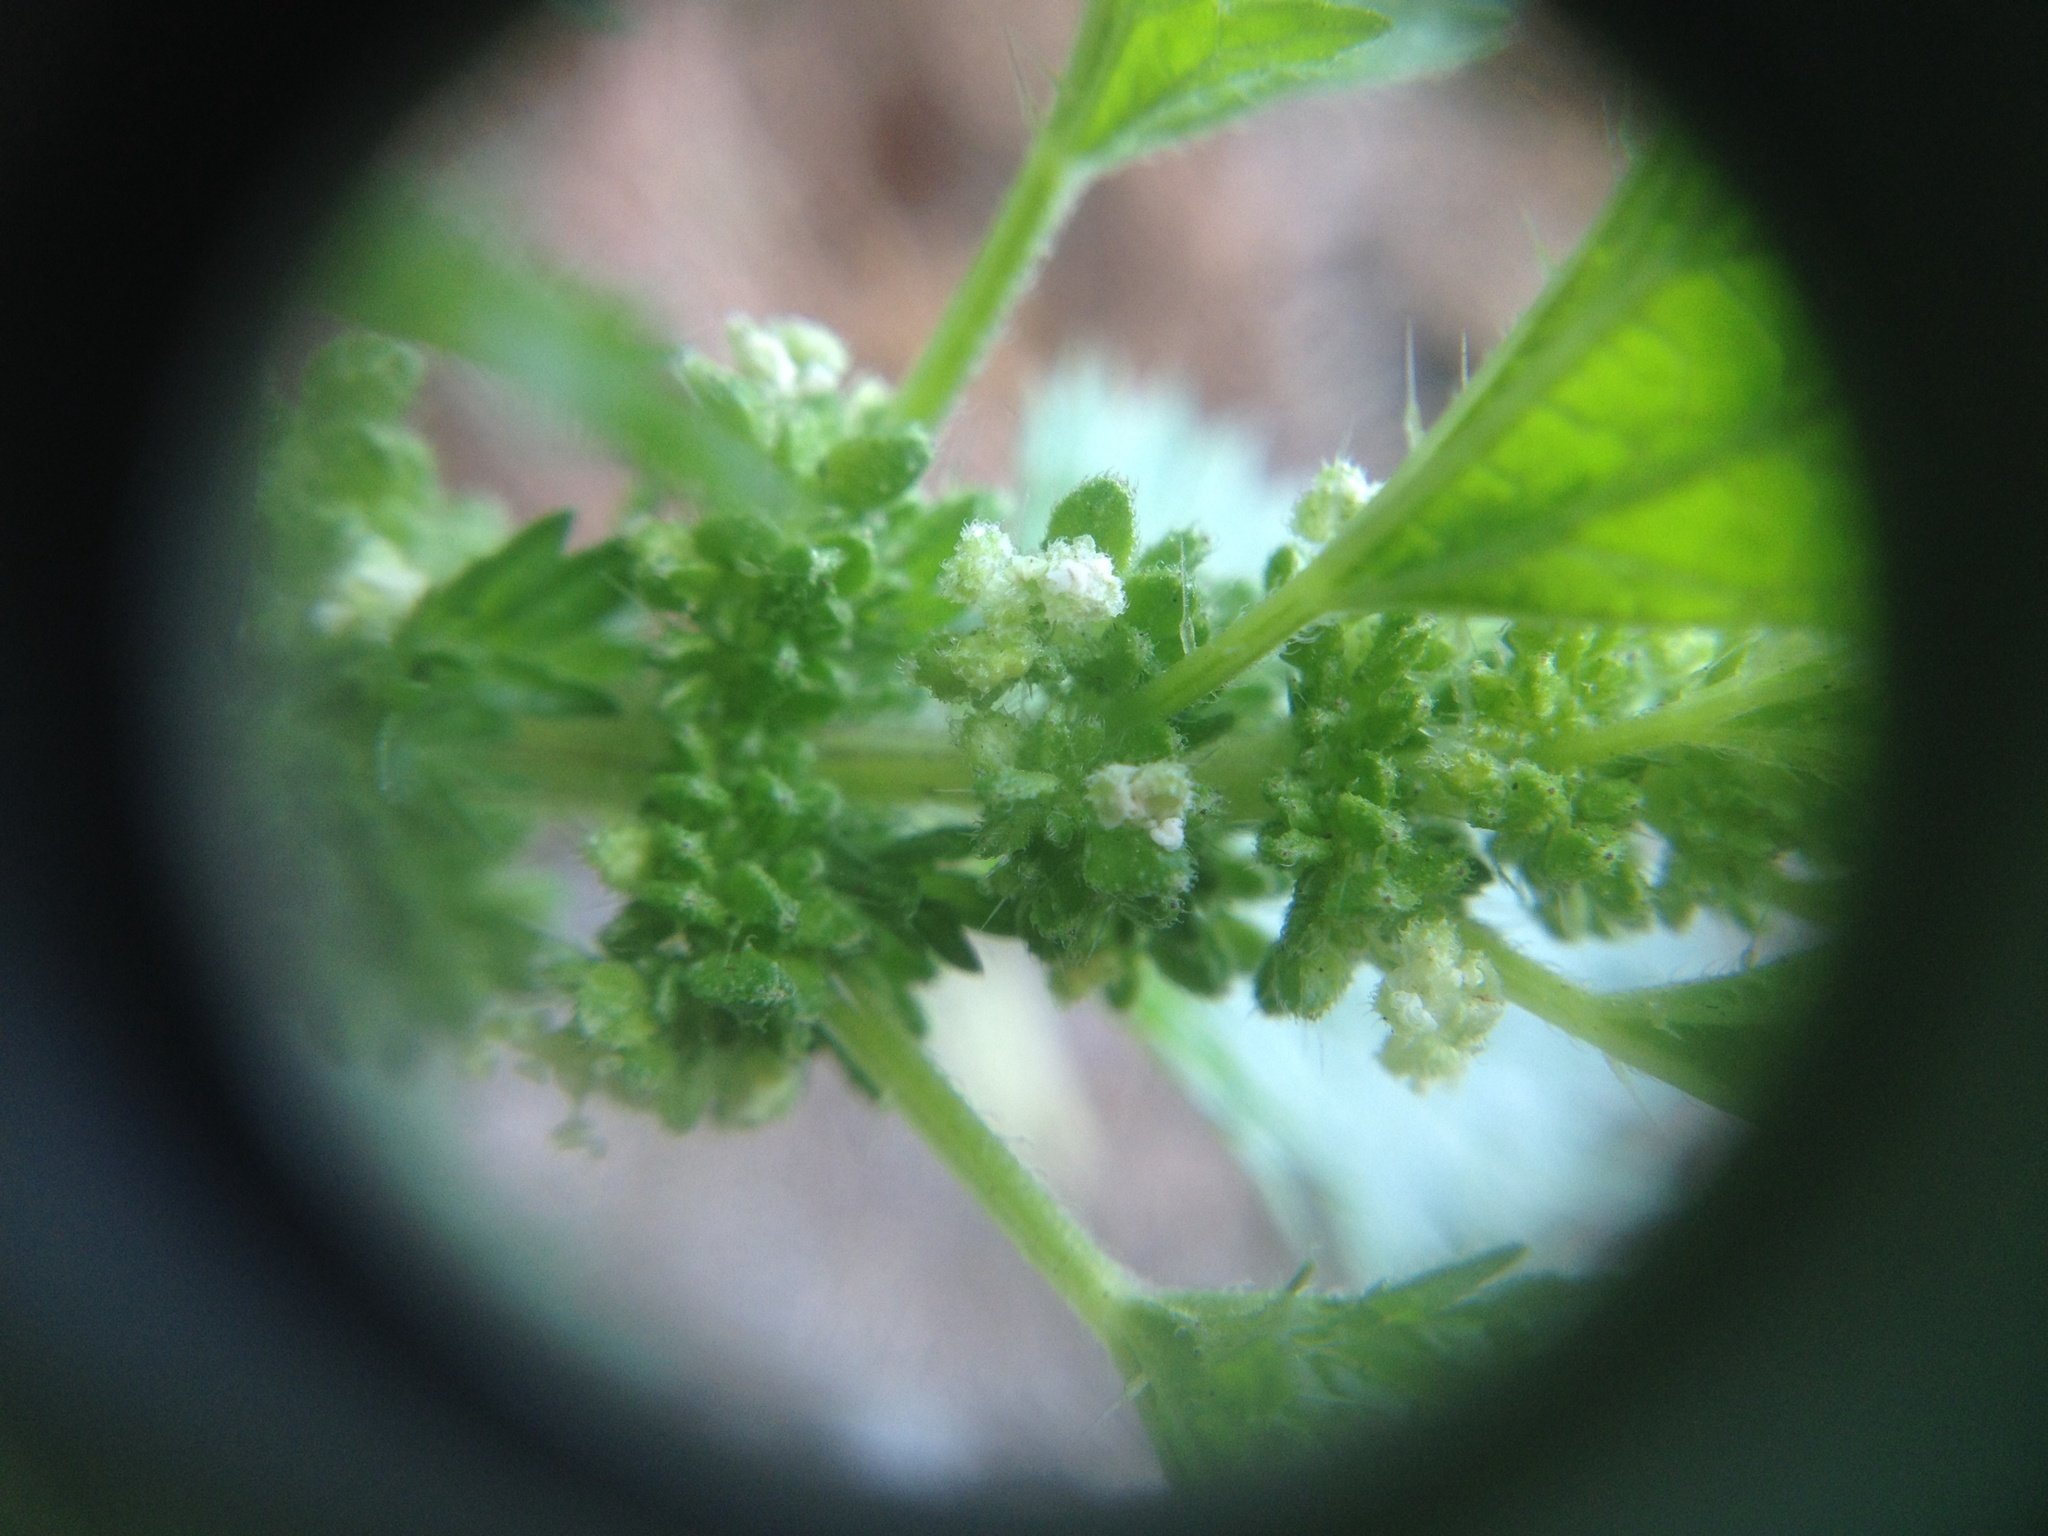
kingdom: Plantae
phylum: Tracheophyta
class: Magnoliopsida
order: Rosales
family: Urticaceae
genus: Urtica
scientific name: Urtica urens
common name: Dwarf nettle
